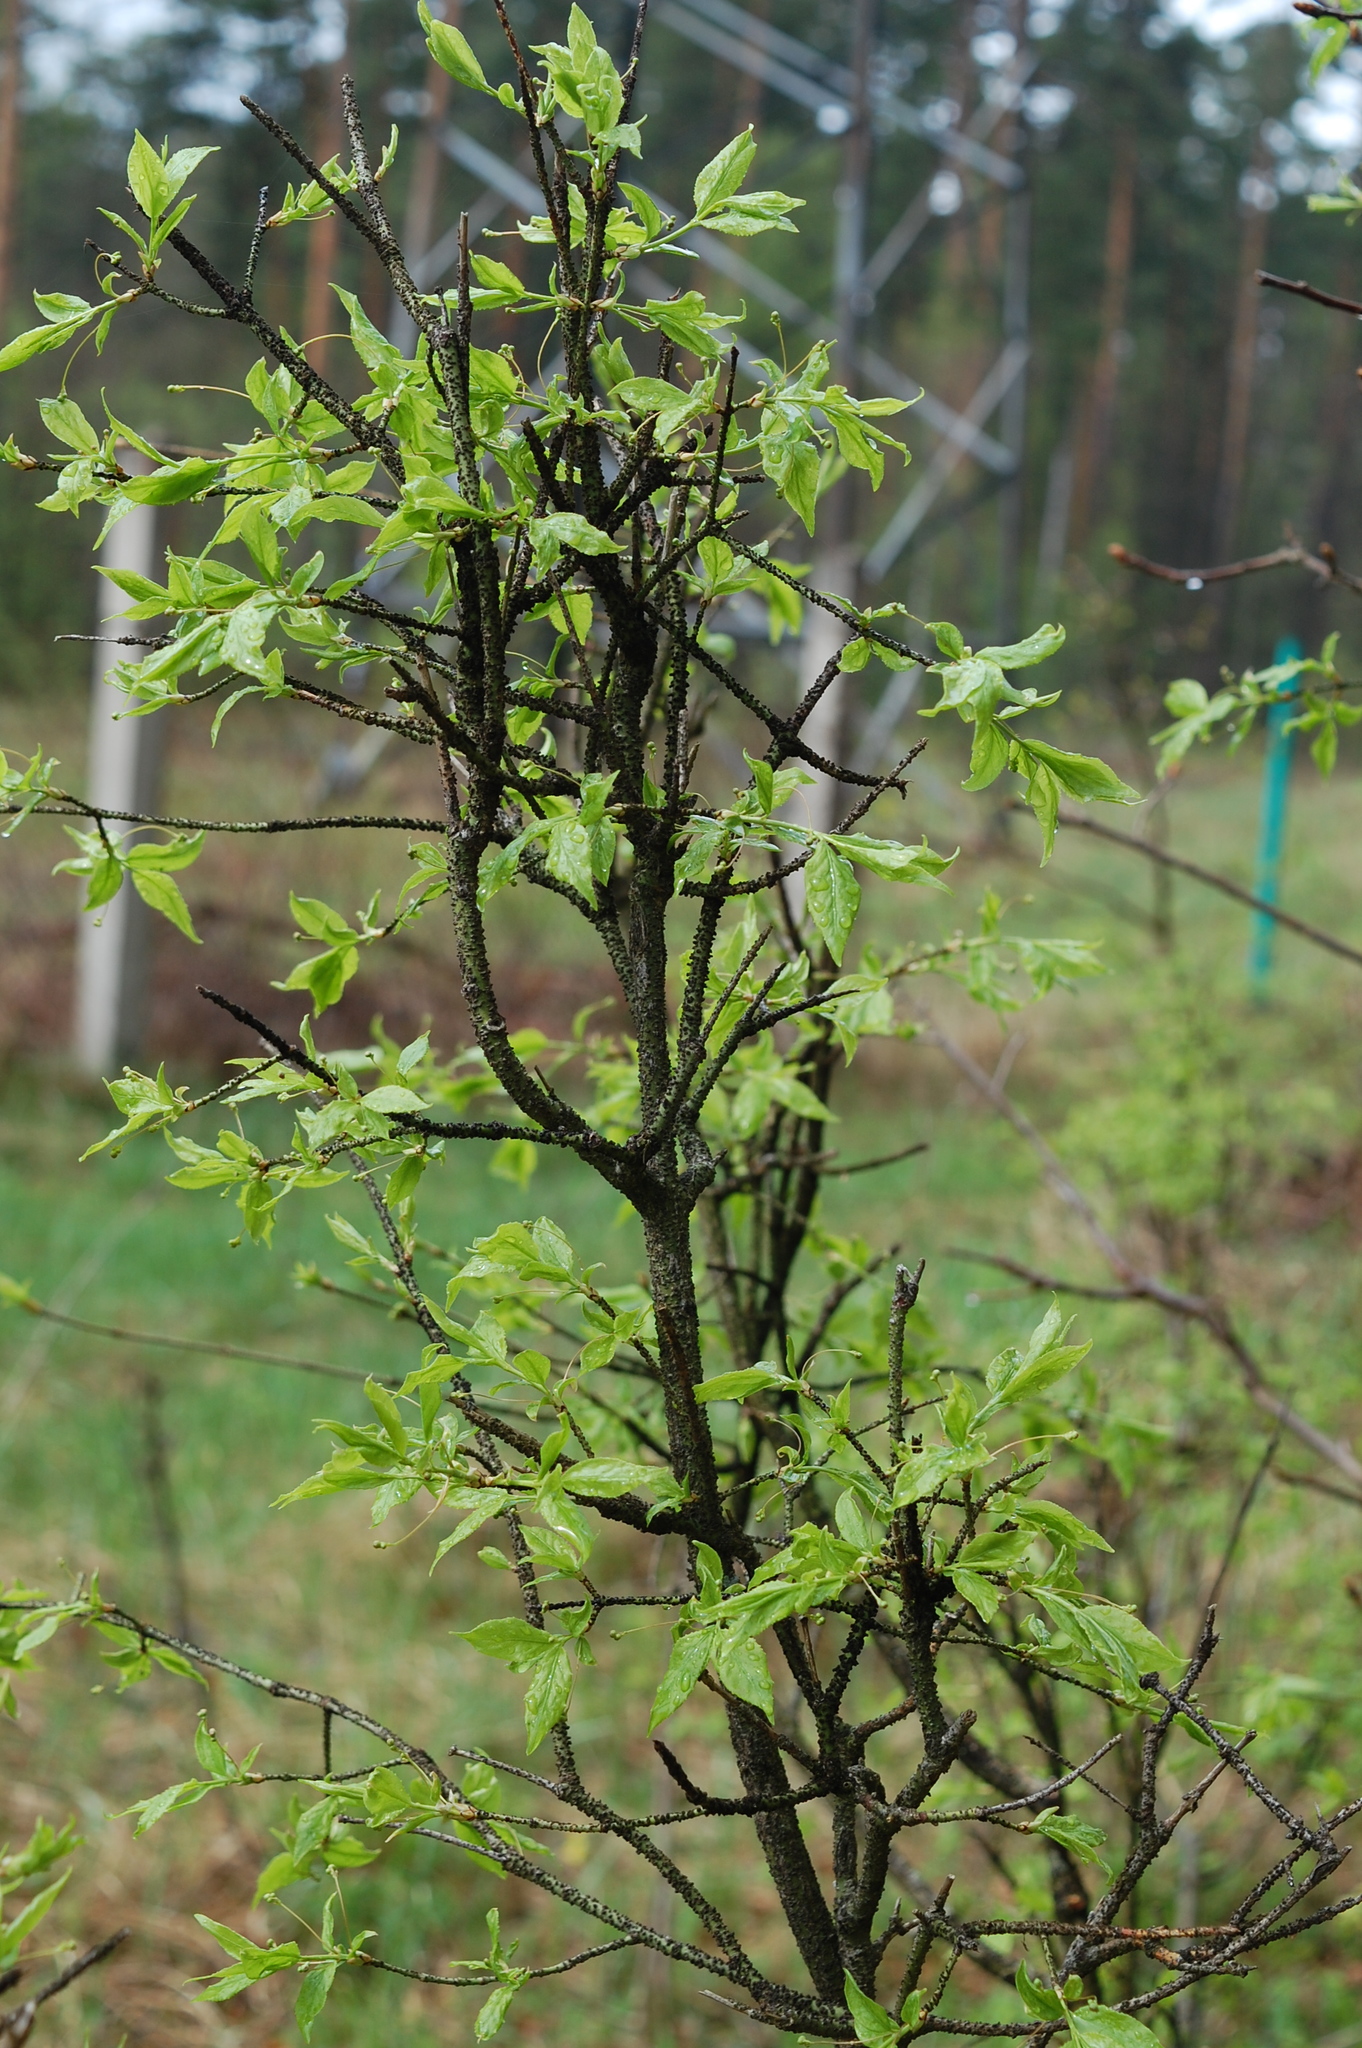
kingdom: Plantae
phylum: Tracheophyta
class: Magnoliopsida
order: Celastrales
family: Celastraceae
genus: Euonymus
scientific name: Euonymus verrucosus
